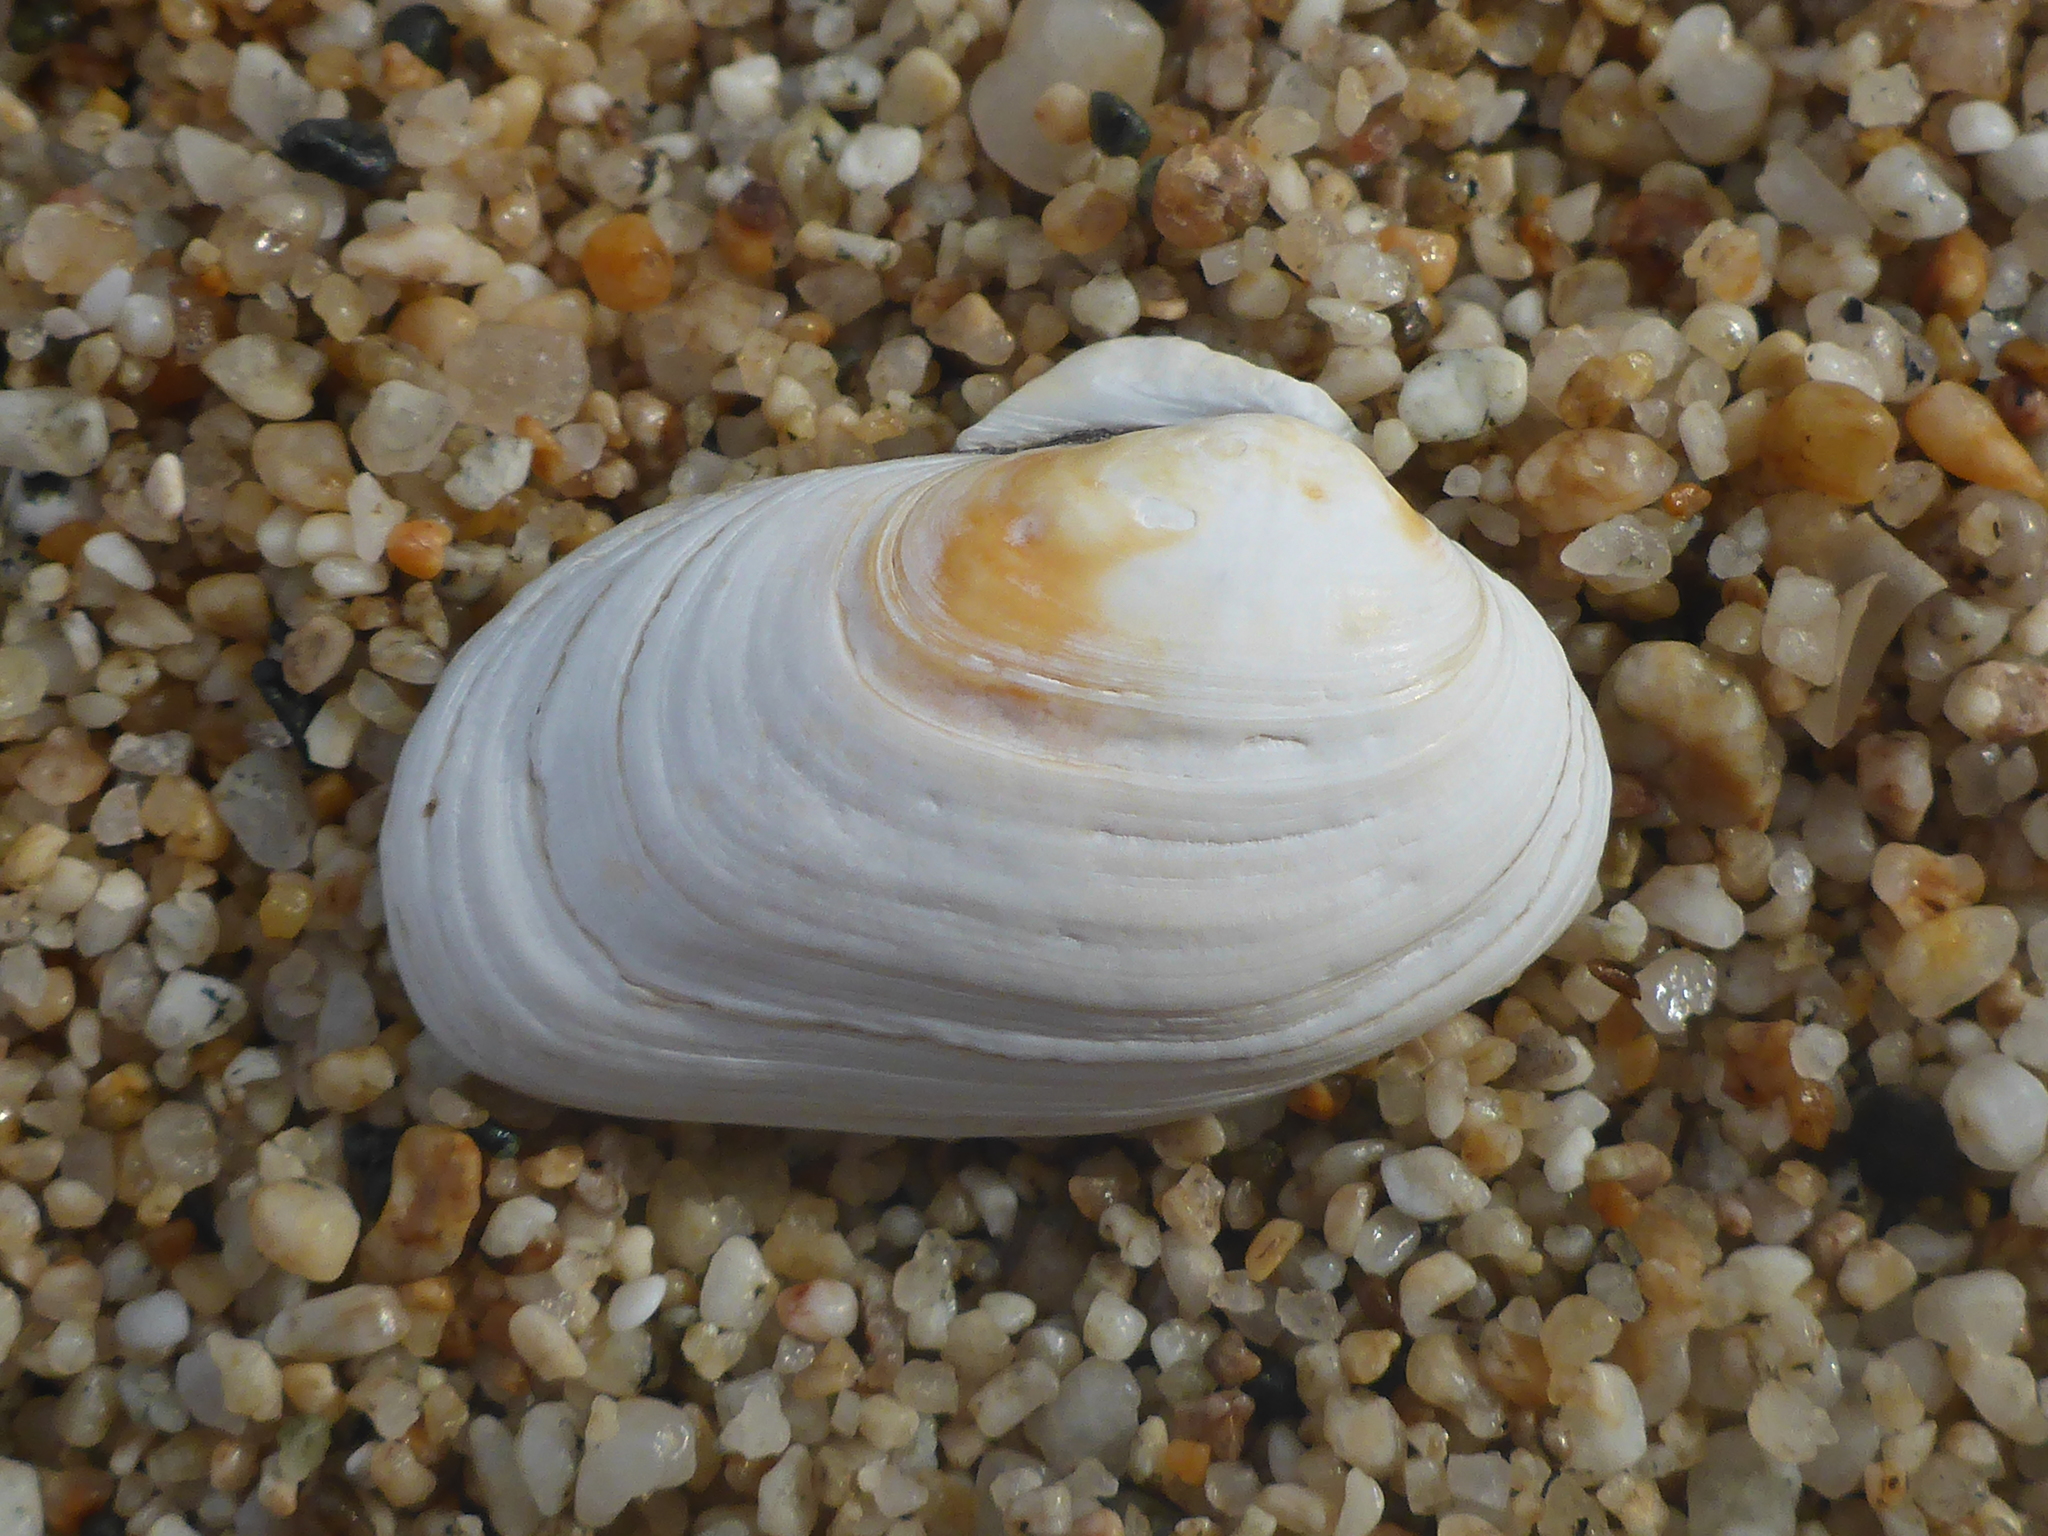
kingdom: Animalia
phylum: Mollusca
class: Bivalvia
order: Venerida
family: Veneridae
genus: Petricola
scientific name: Petricola carditoides
